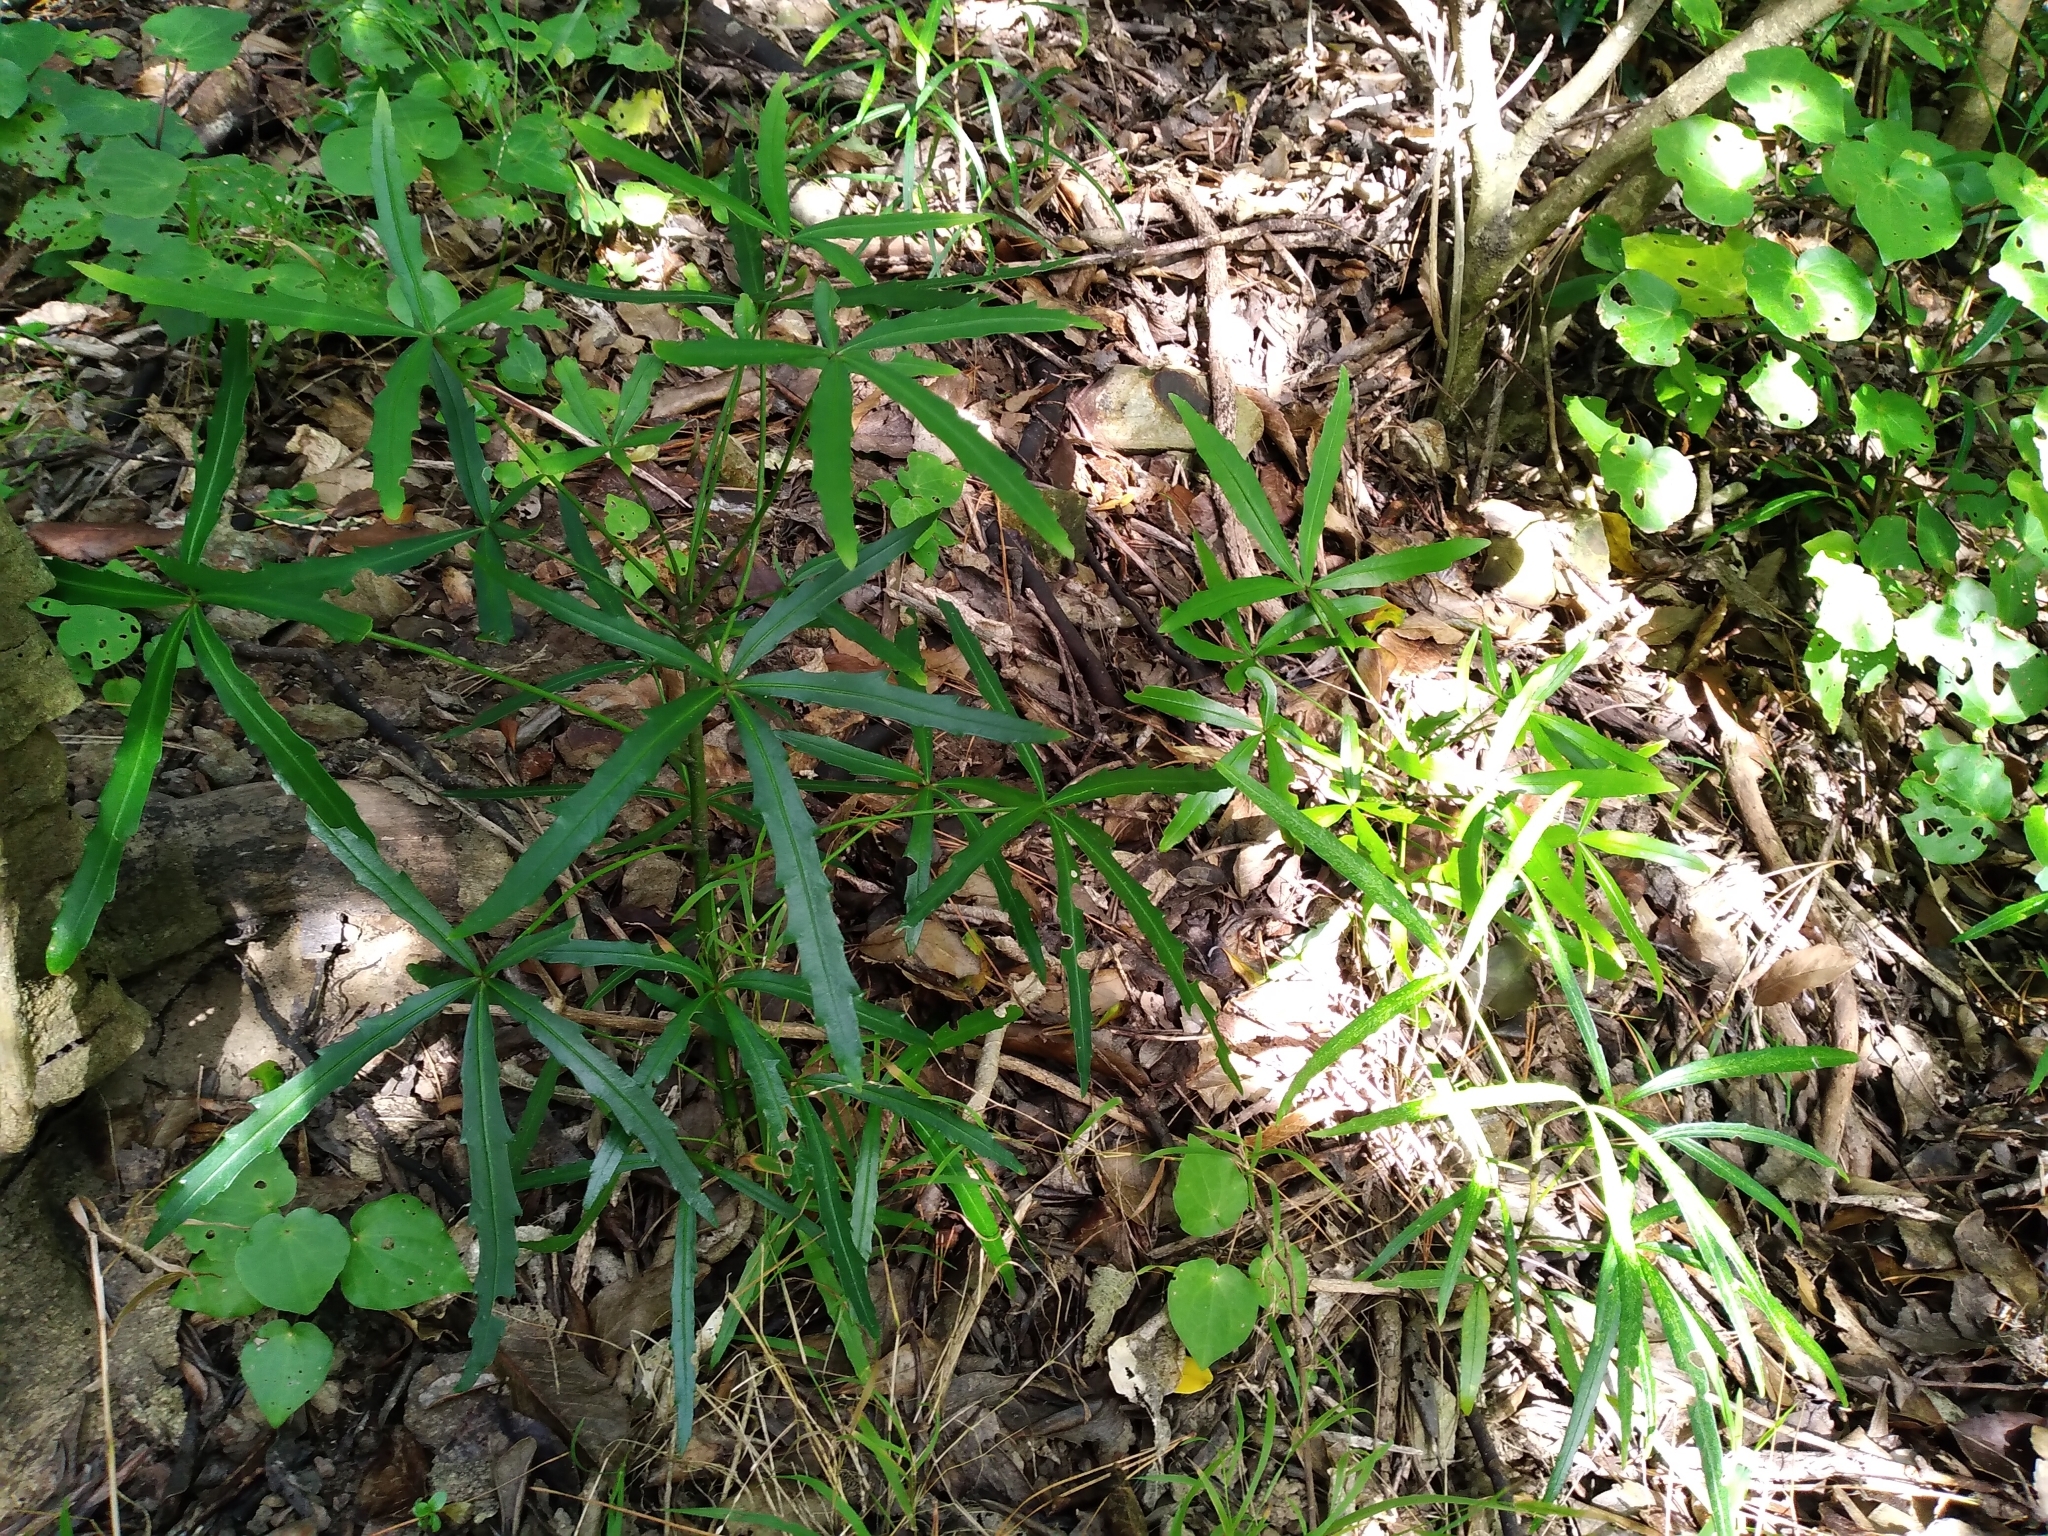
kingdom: Plantae
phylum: Tracheophyta
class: Magnoliopsida
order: Apiales
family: Araliaceae
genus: Pseudopanax
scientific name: Pseudopanax
